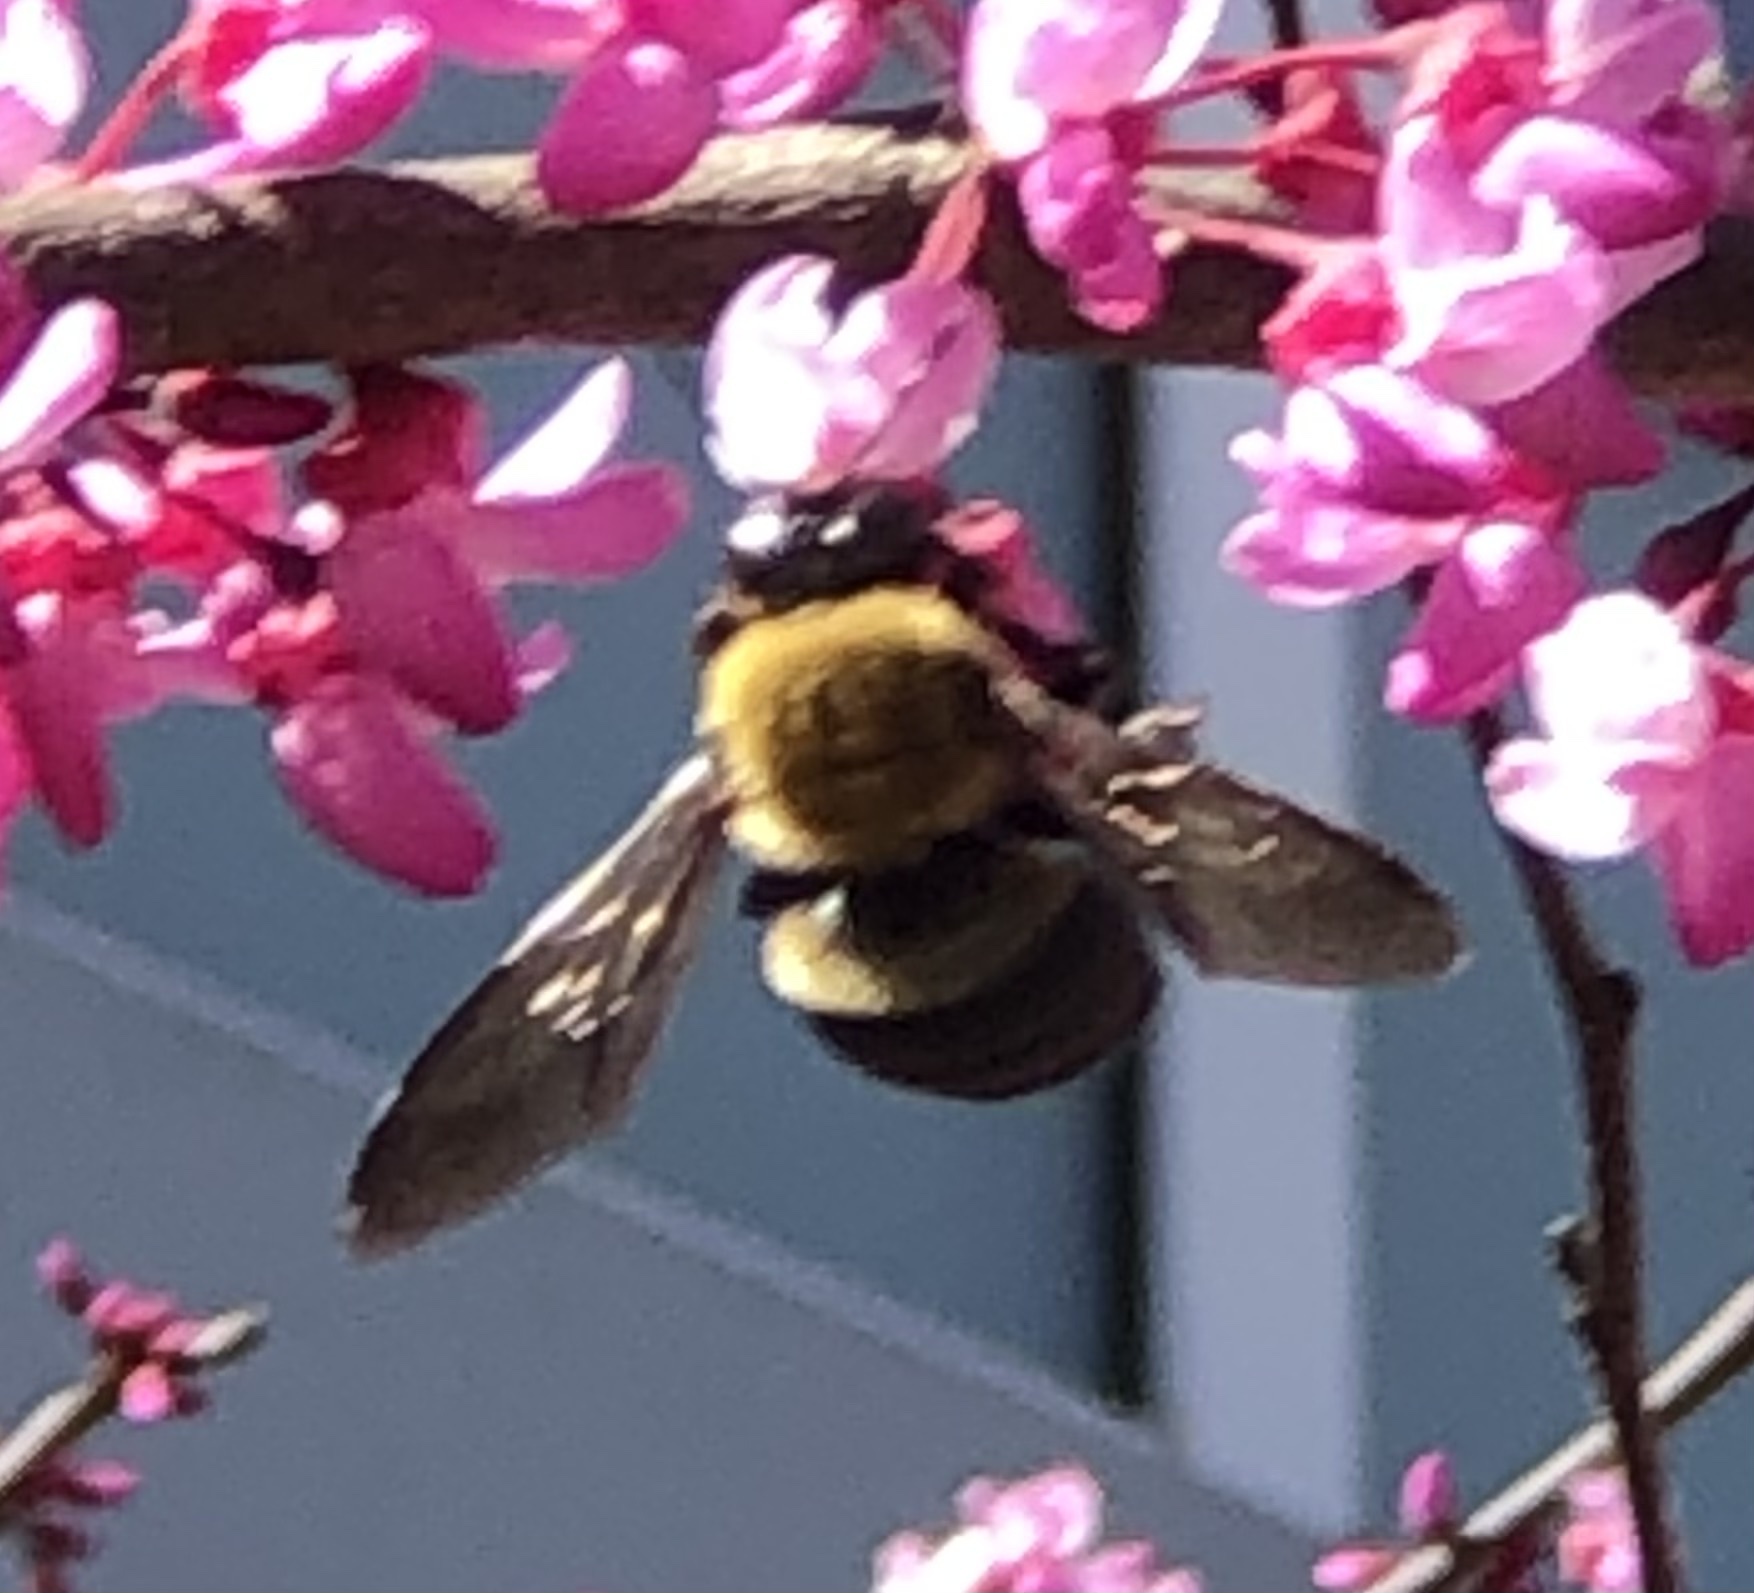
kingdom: Animalia
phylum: Arthropoda
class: Insecta
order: Hymenoptera
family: Apidae
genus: Xylocopa
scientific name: Xylocopa virginica
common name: Carpenter bee
